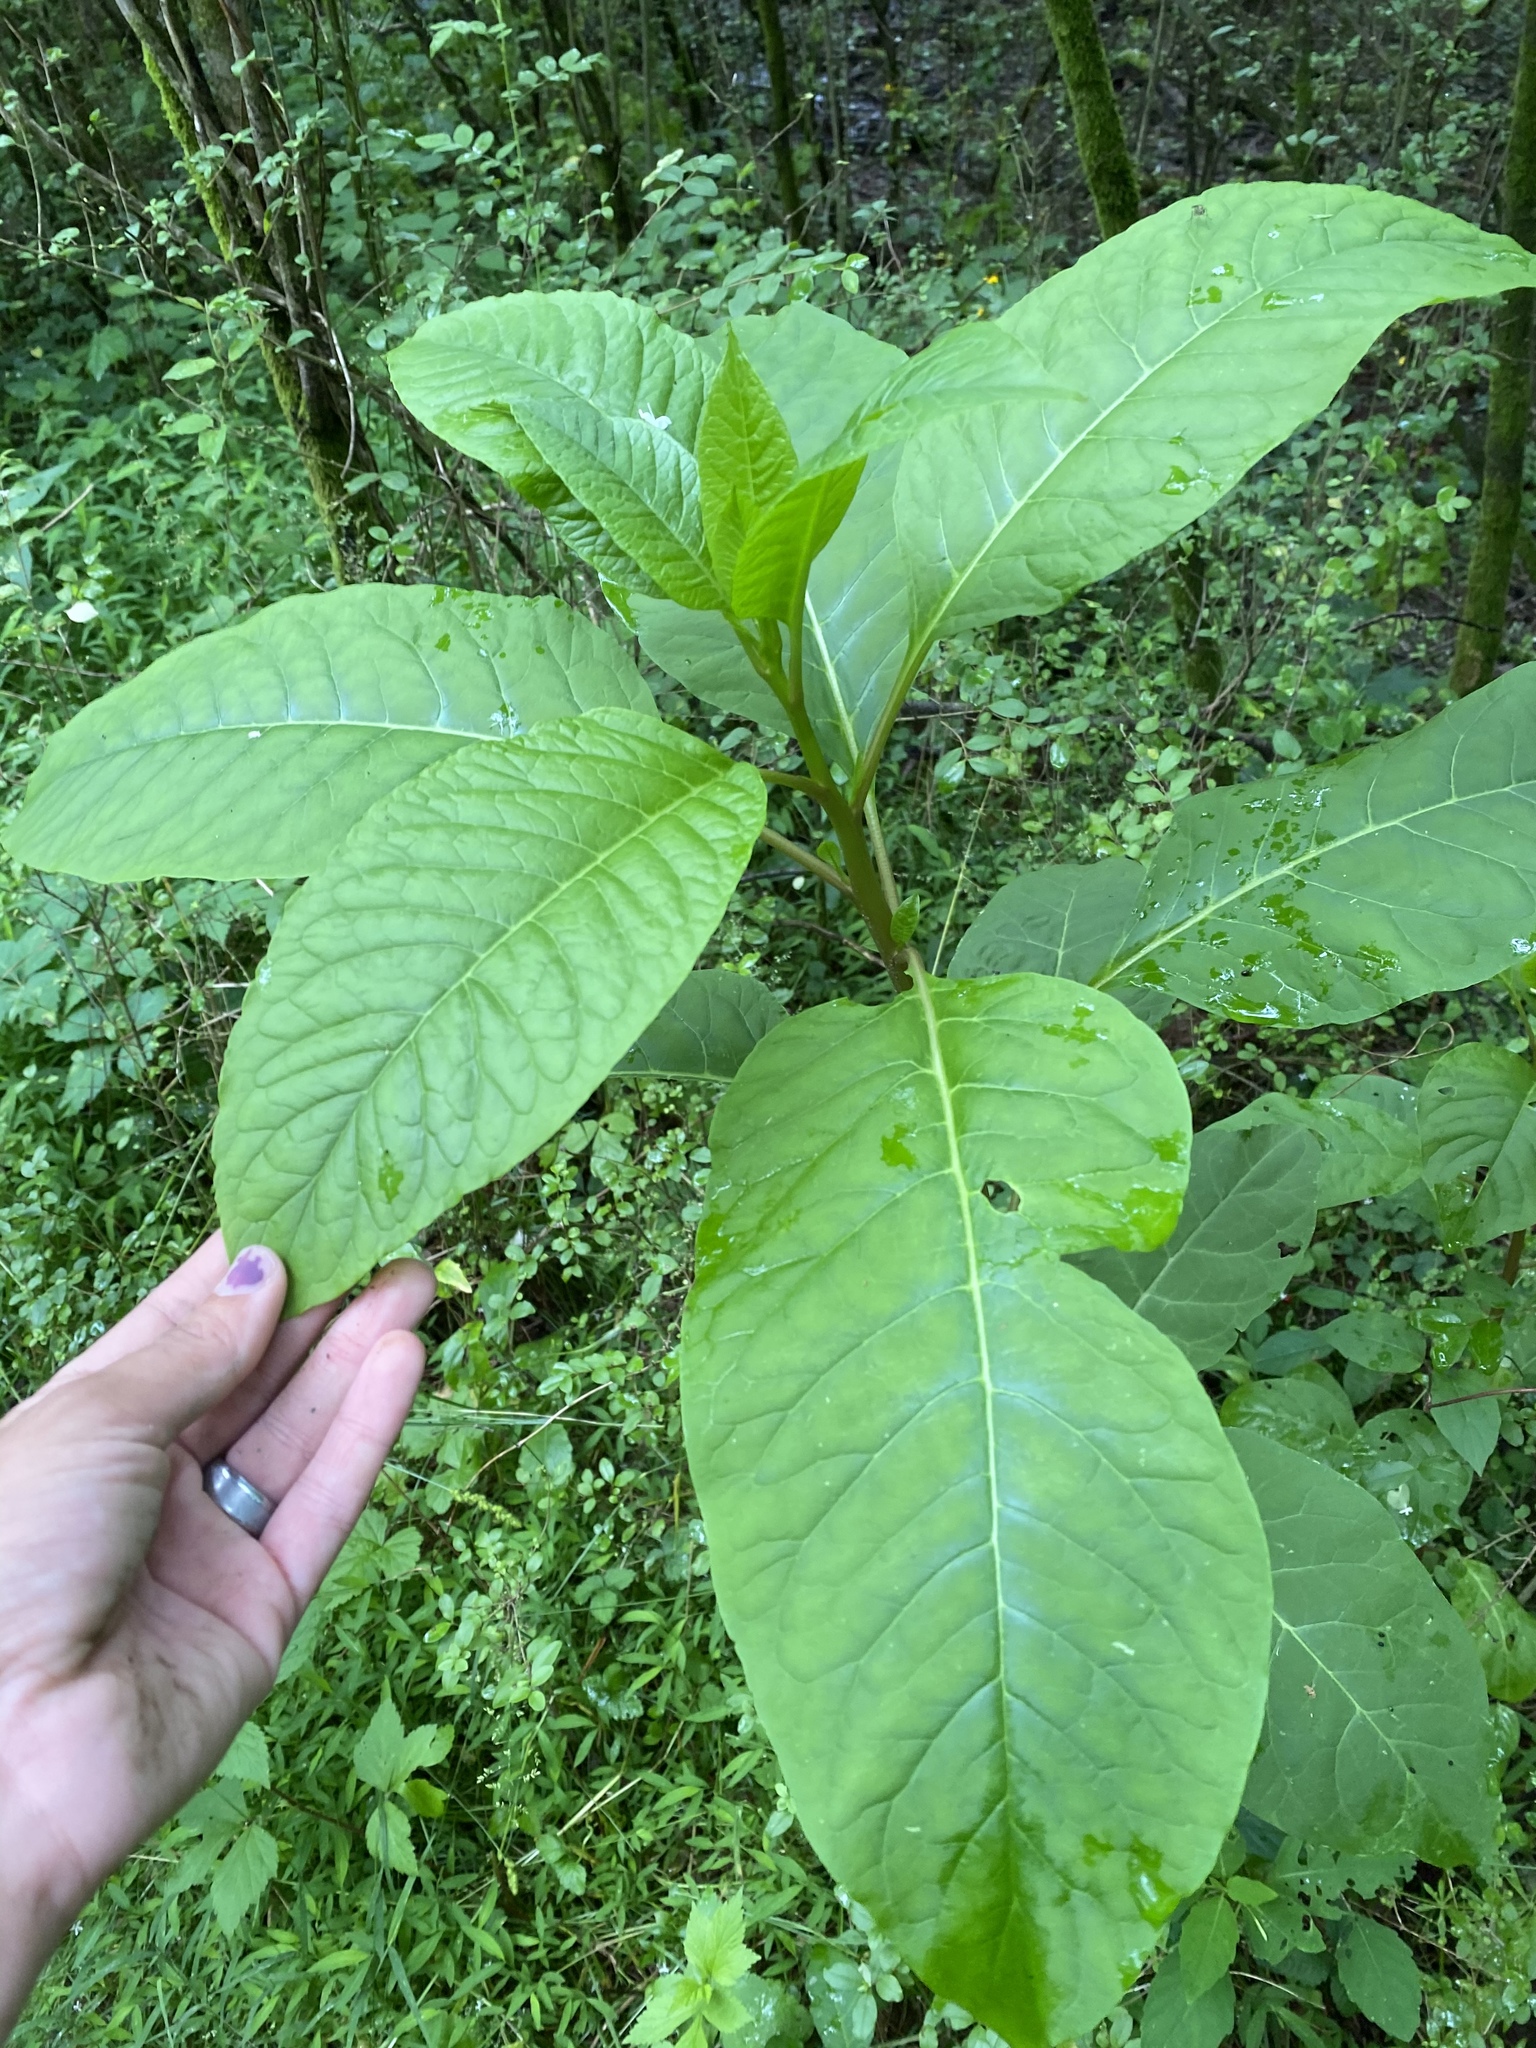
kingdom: Plantae
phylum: Tracheophyta
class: Magnoliopsida
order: Caryophyllales
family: Phytolaccaceae
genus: Phytolacca
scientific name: Phytolacca americana
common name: American pokeweed
